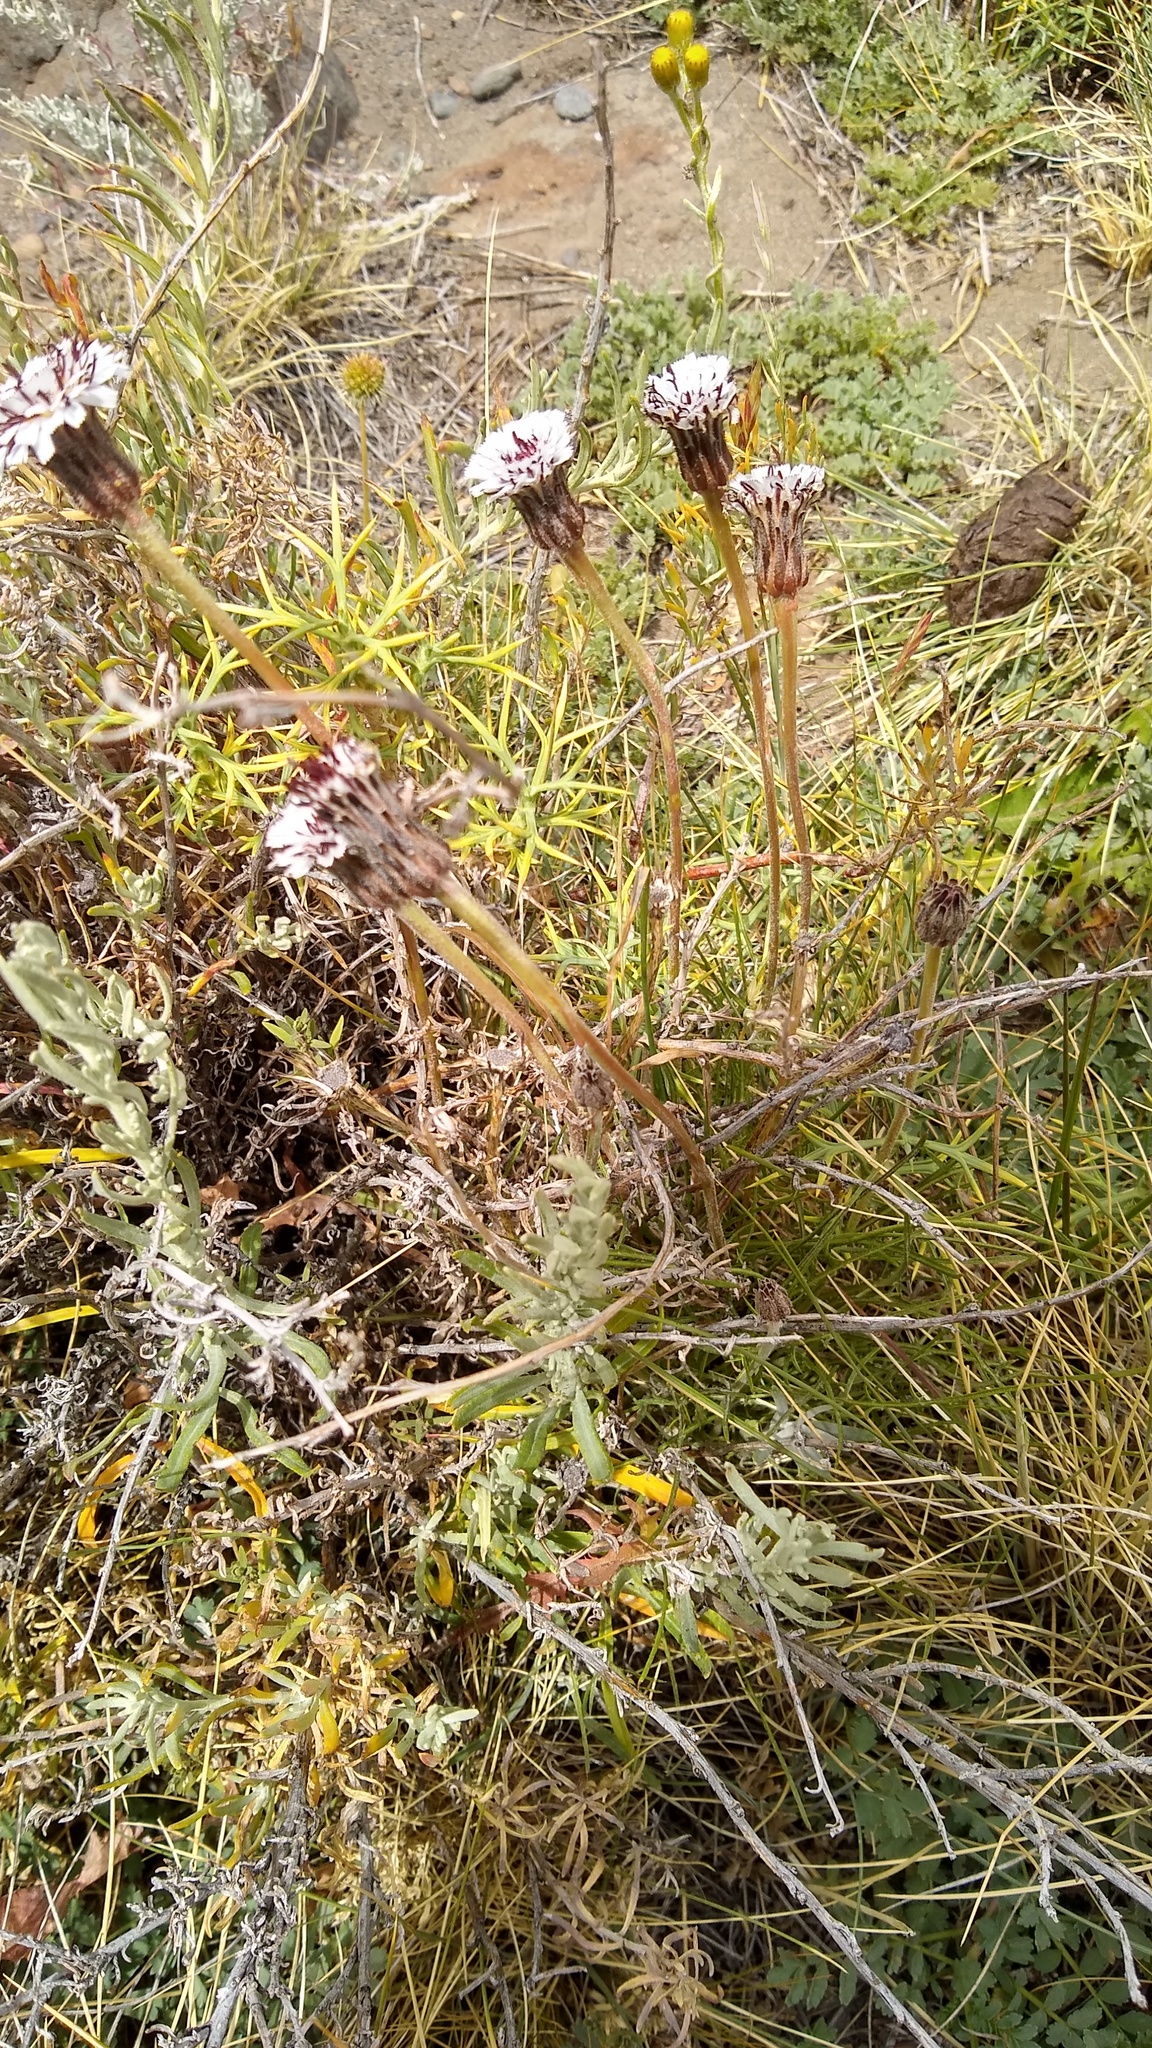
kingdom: Plantae
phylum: Tracheophyta
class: Magnoliopsida
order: Asterales
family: Asteraceae
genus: Hypochaeris
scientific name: Hypochaeris incana
